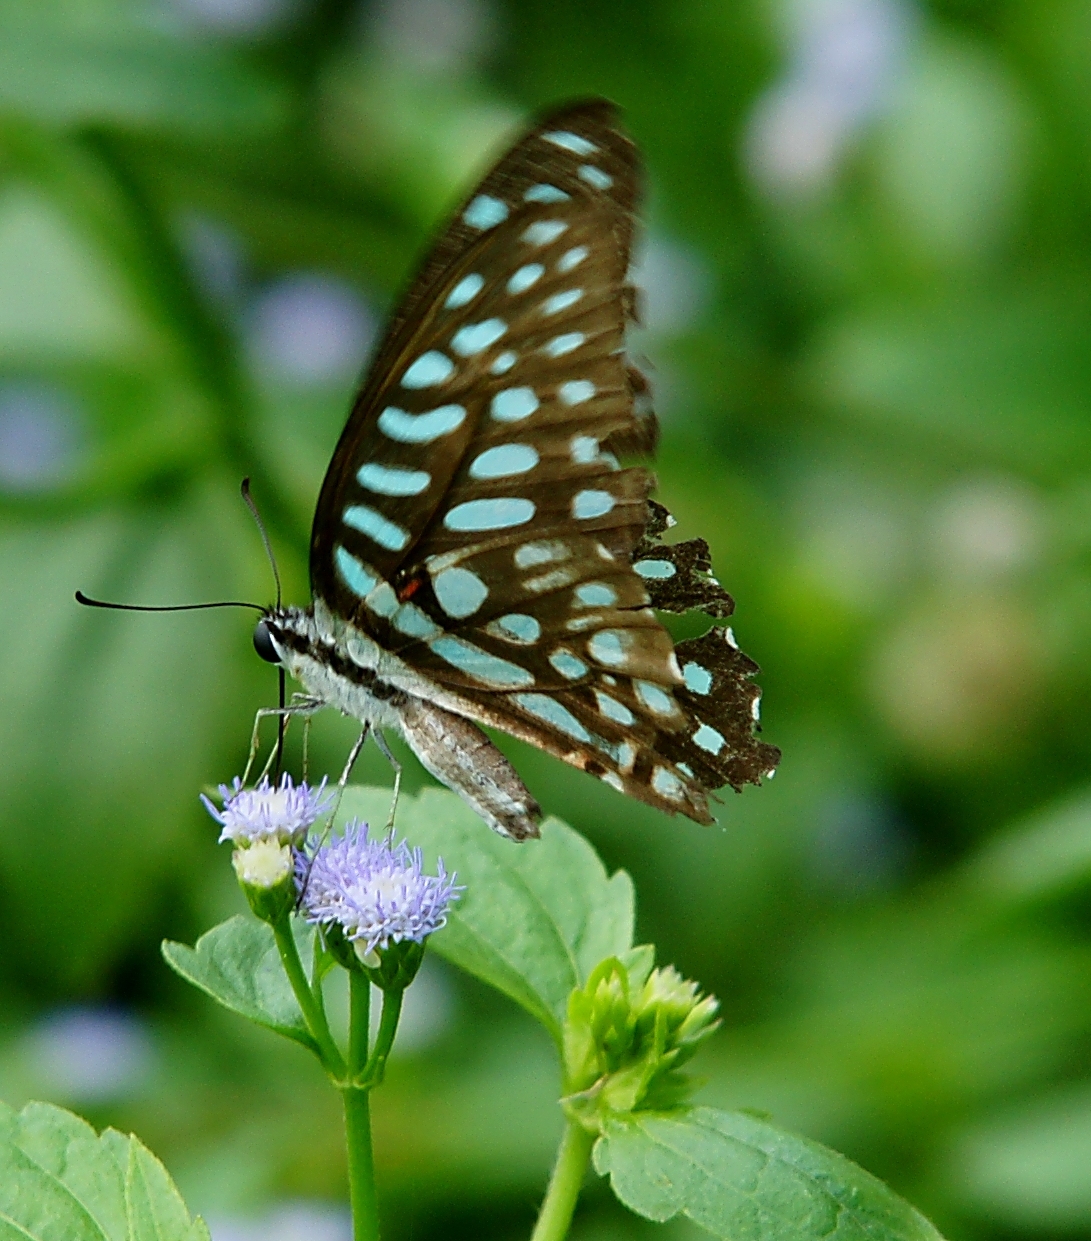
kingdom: Animalia
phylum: Arthropoda
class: Insecta
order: Lepidoptera
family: Papilionidae
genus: Graphium
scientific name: Graphium arycles
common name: Spotted jay
